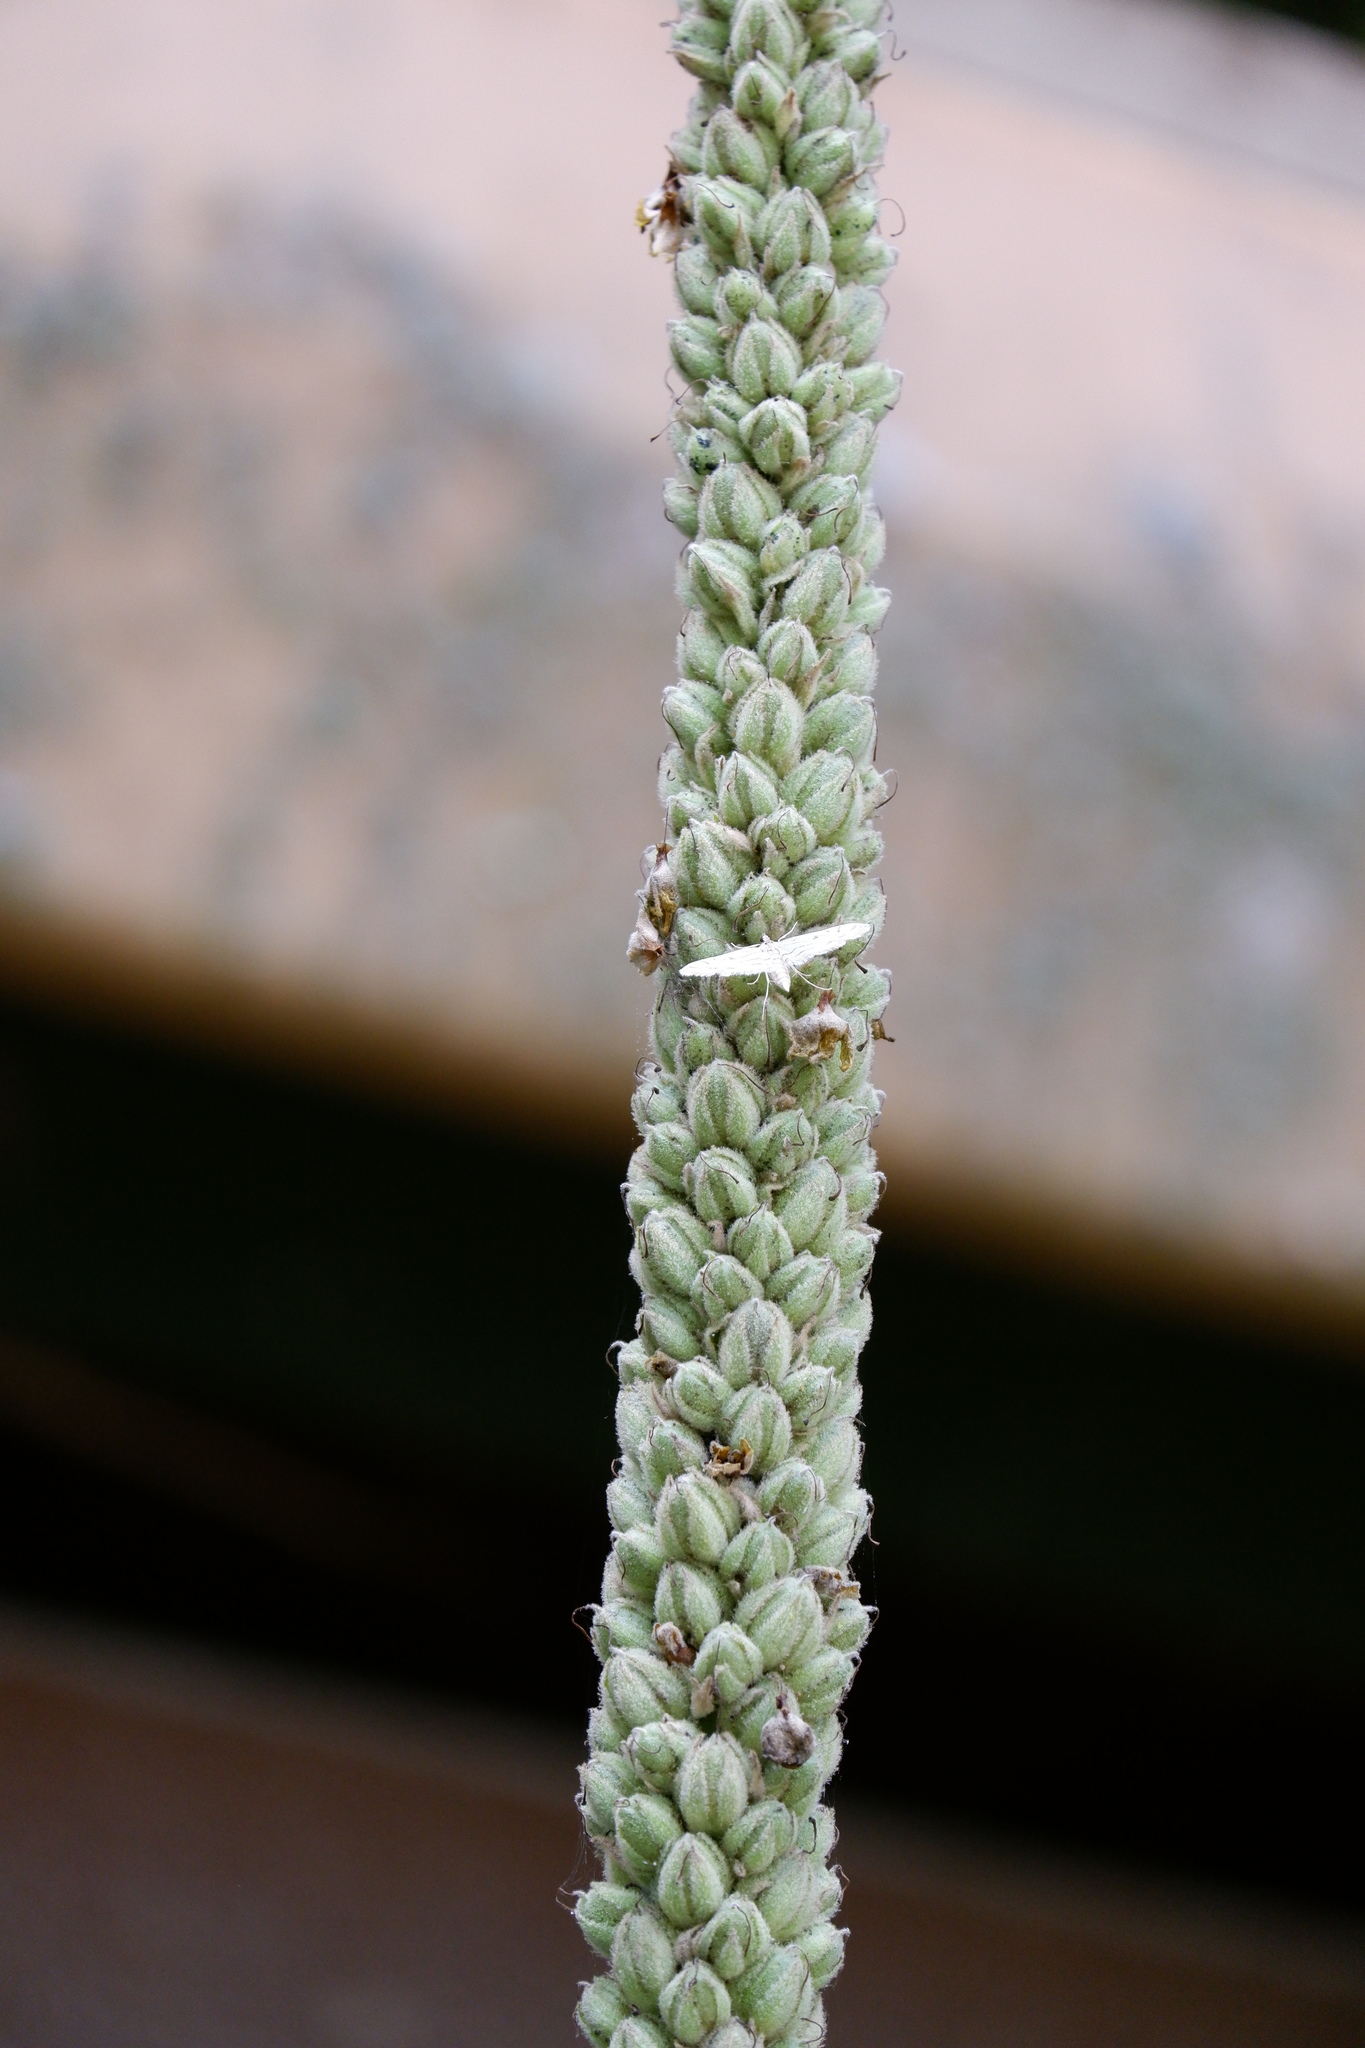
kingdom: Animalia
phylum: Arthropoda
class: Insecta
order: Lepidoptera
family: Crambidae
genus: Parapoynx
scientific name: Parapoynx allionealis
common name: Bladderwort casemaker
